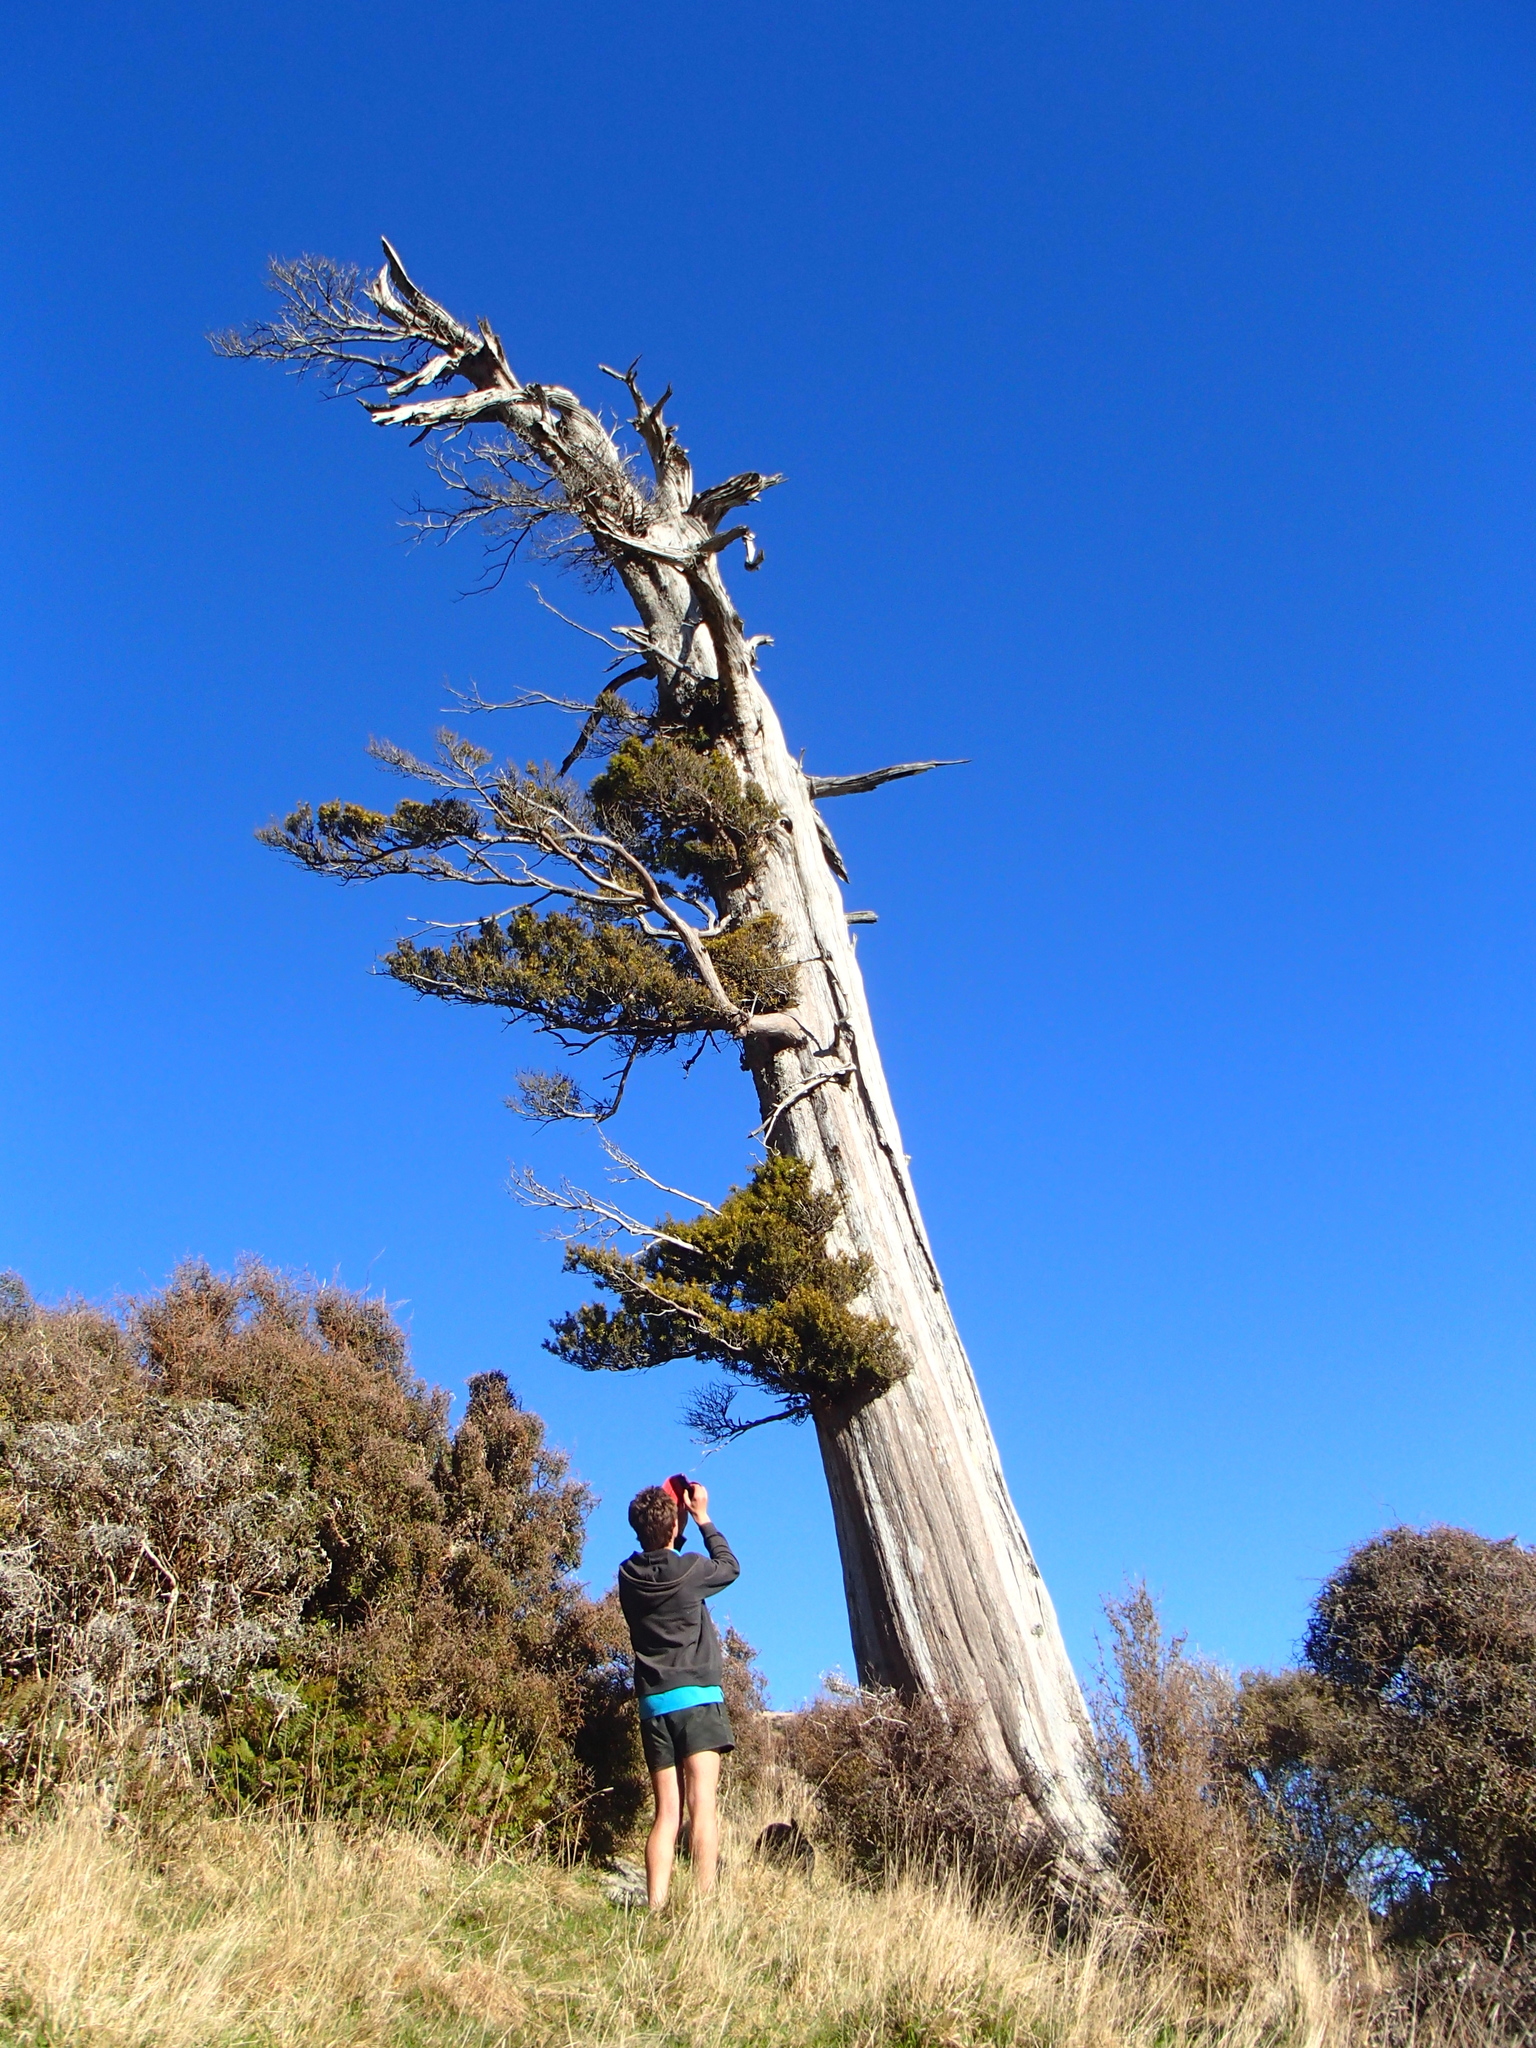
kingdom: Plantae
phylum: Tracheophyta
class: Pinopsida
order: Pinales
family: Podocarpaceae
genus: Podocarpus
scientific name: Podocarpus totara
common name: Totara
